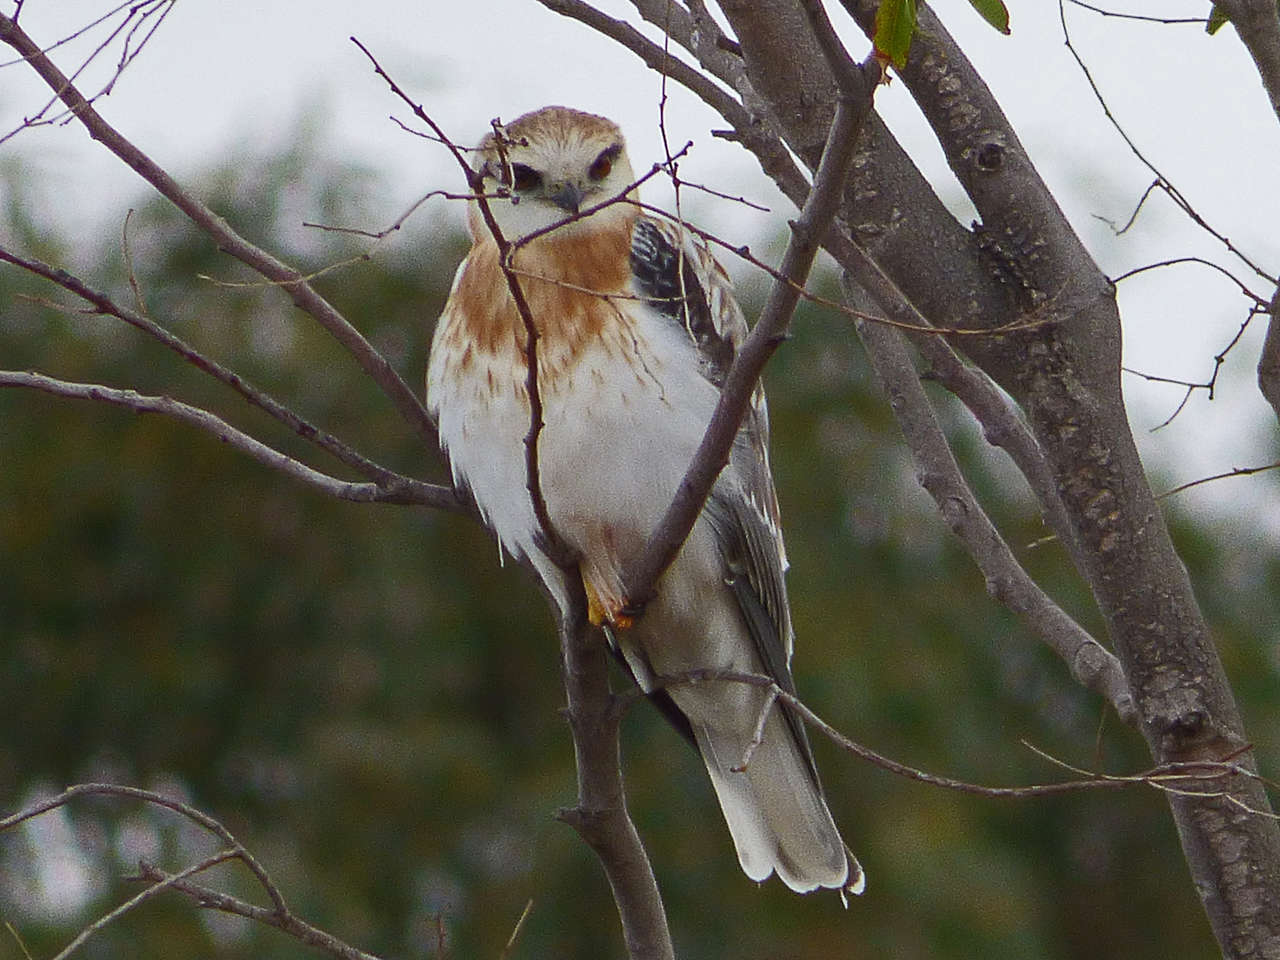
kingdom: Animalia
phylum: Chordata
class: Aves
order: Accipitriformes
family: Accipitridae
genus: Elanus
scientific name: Elanus axillaris
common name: Black-shouldered kite
